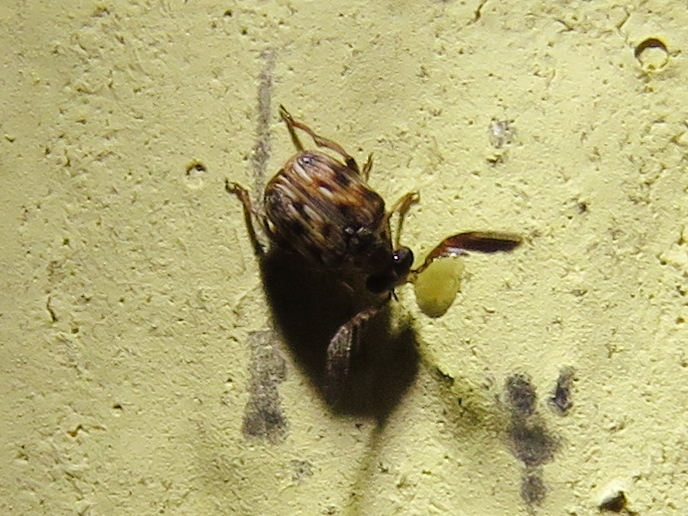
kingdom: Animalia
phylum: Arthropoda
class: Insecta
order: Coleoptera
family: Chrysomelidae
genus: Megacerus
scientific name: Megacerus cubiculus
